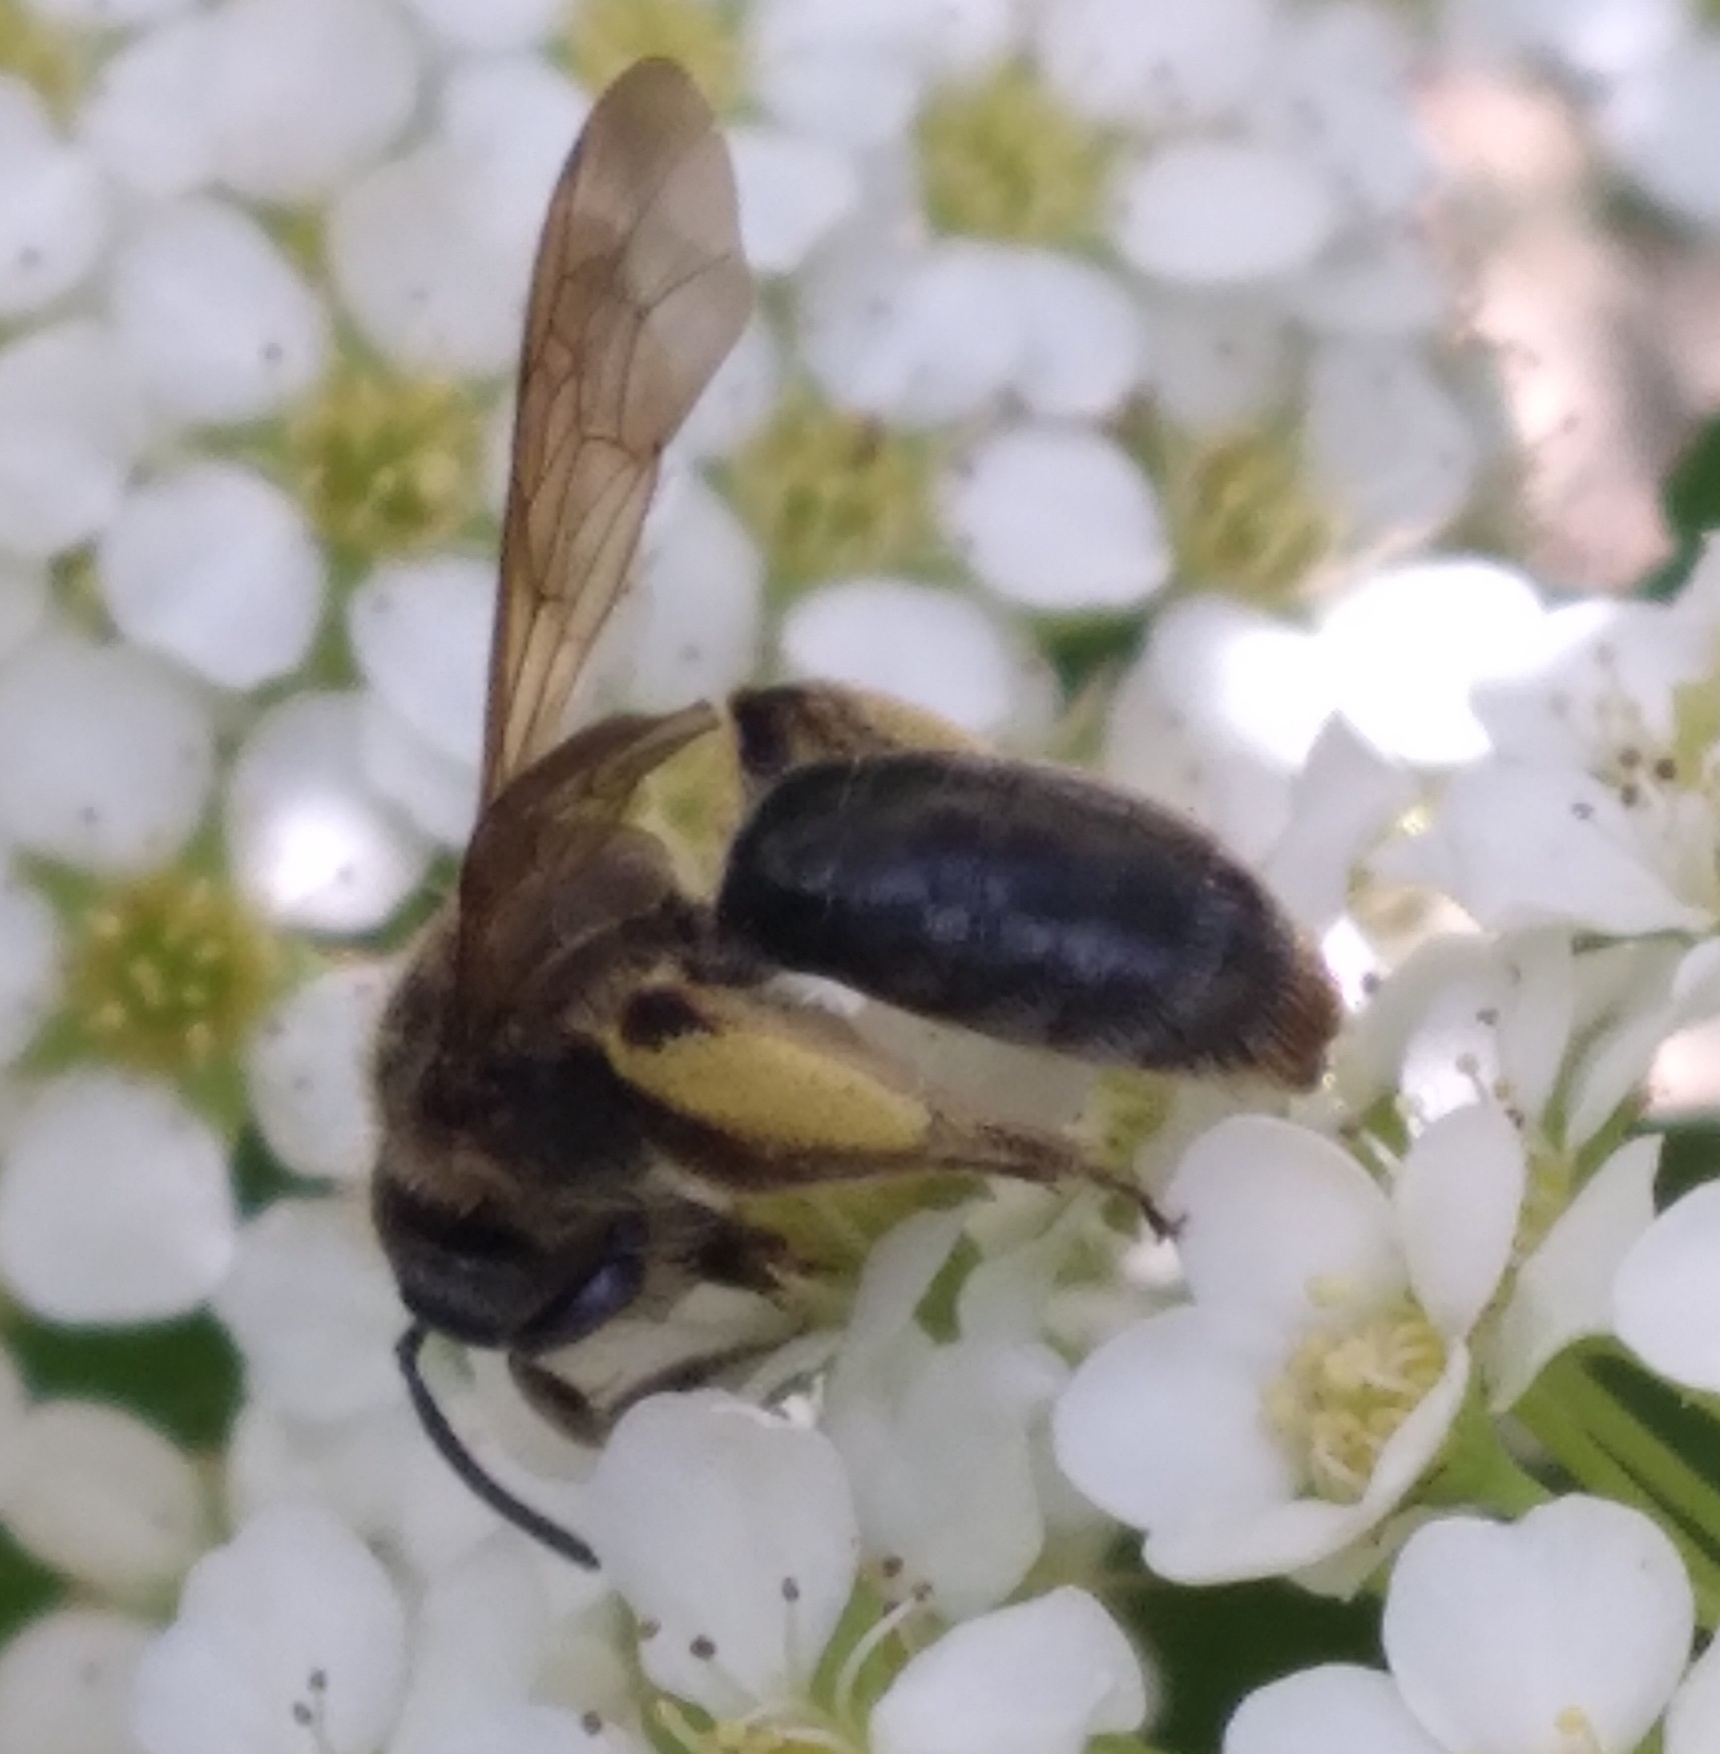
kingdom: Animalia
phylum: Arthropoda
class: Insecta
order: Hymenoptera
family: Andrenidae
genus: Andrena
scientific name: Andrena crataegi
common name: Hawthorn mining bee
